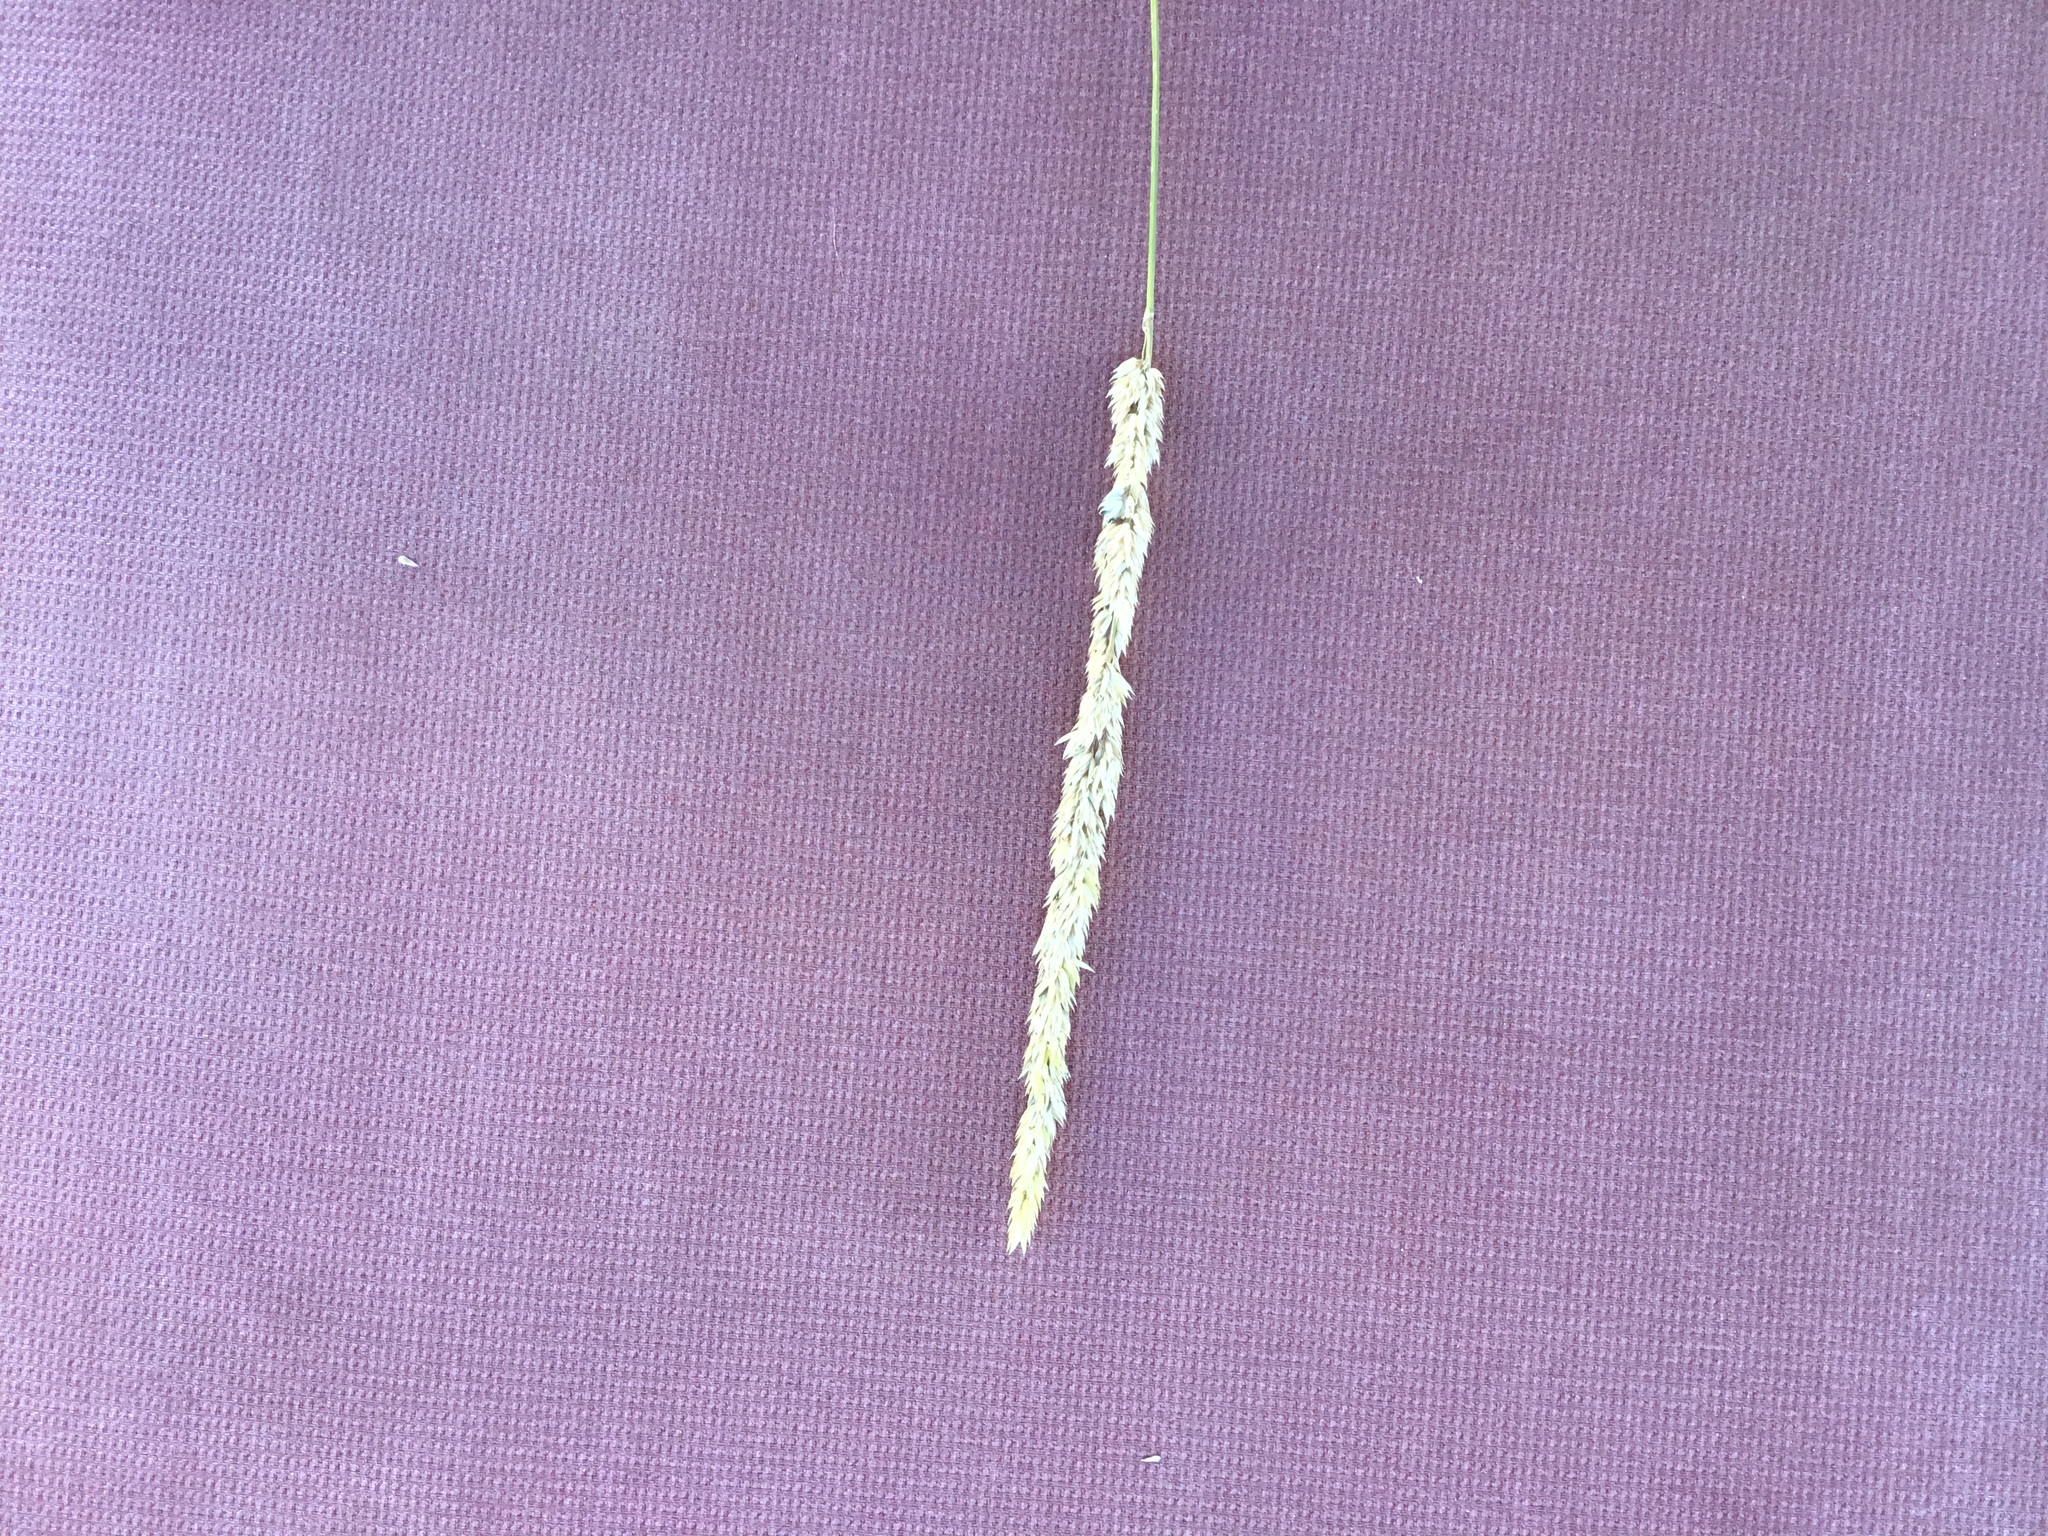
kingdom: Plantae
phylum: Tracheophyta
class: Liliopsida
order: Poales
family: Poaceae
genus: Phalaris
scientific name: Phalaris arundinacea
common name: Reed canary-grass
